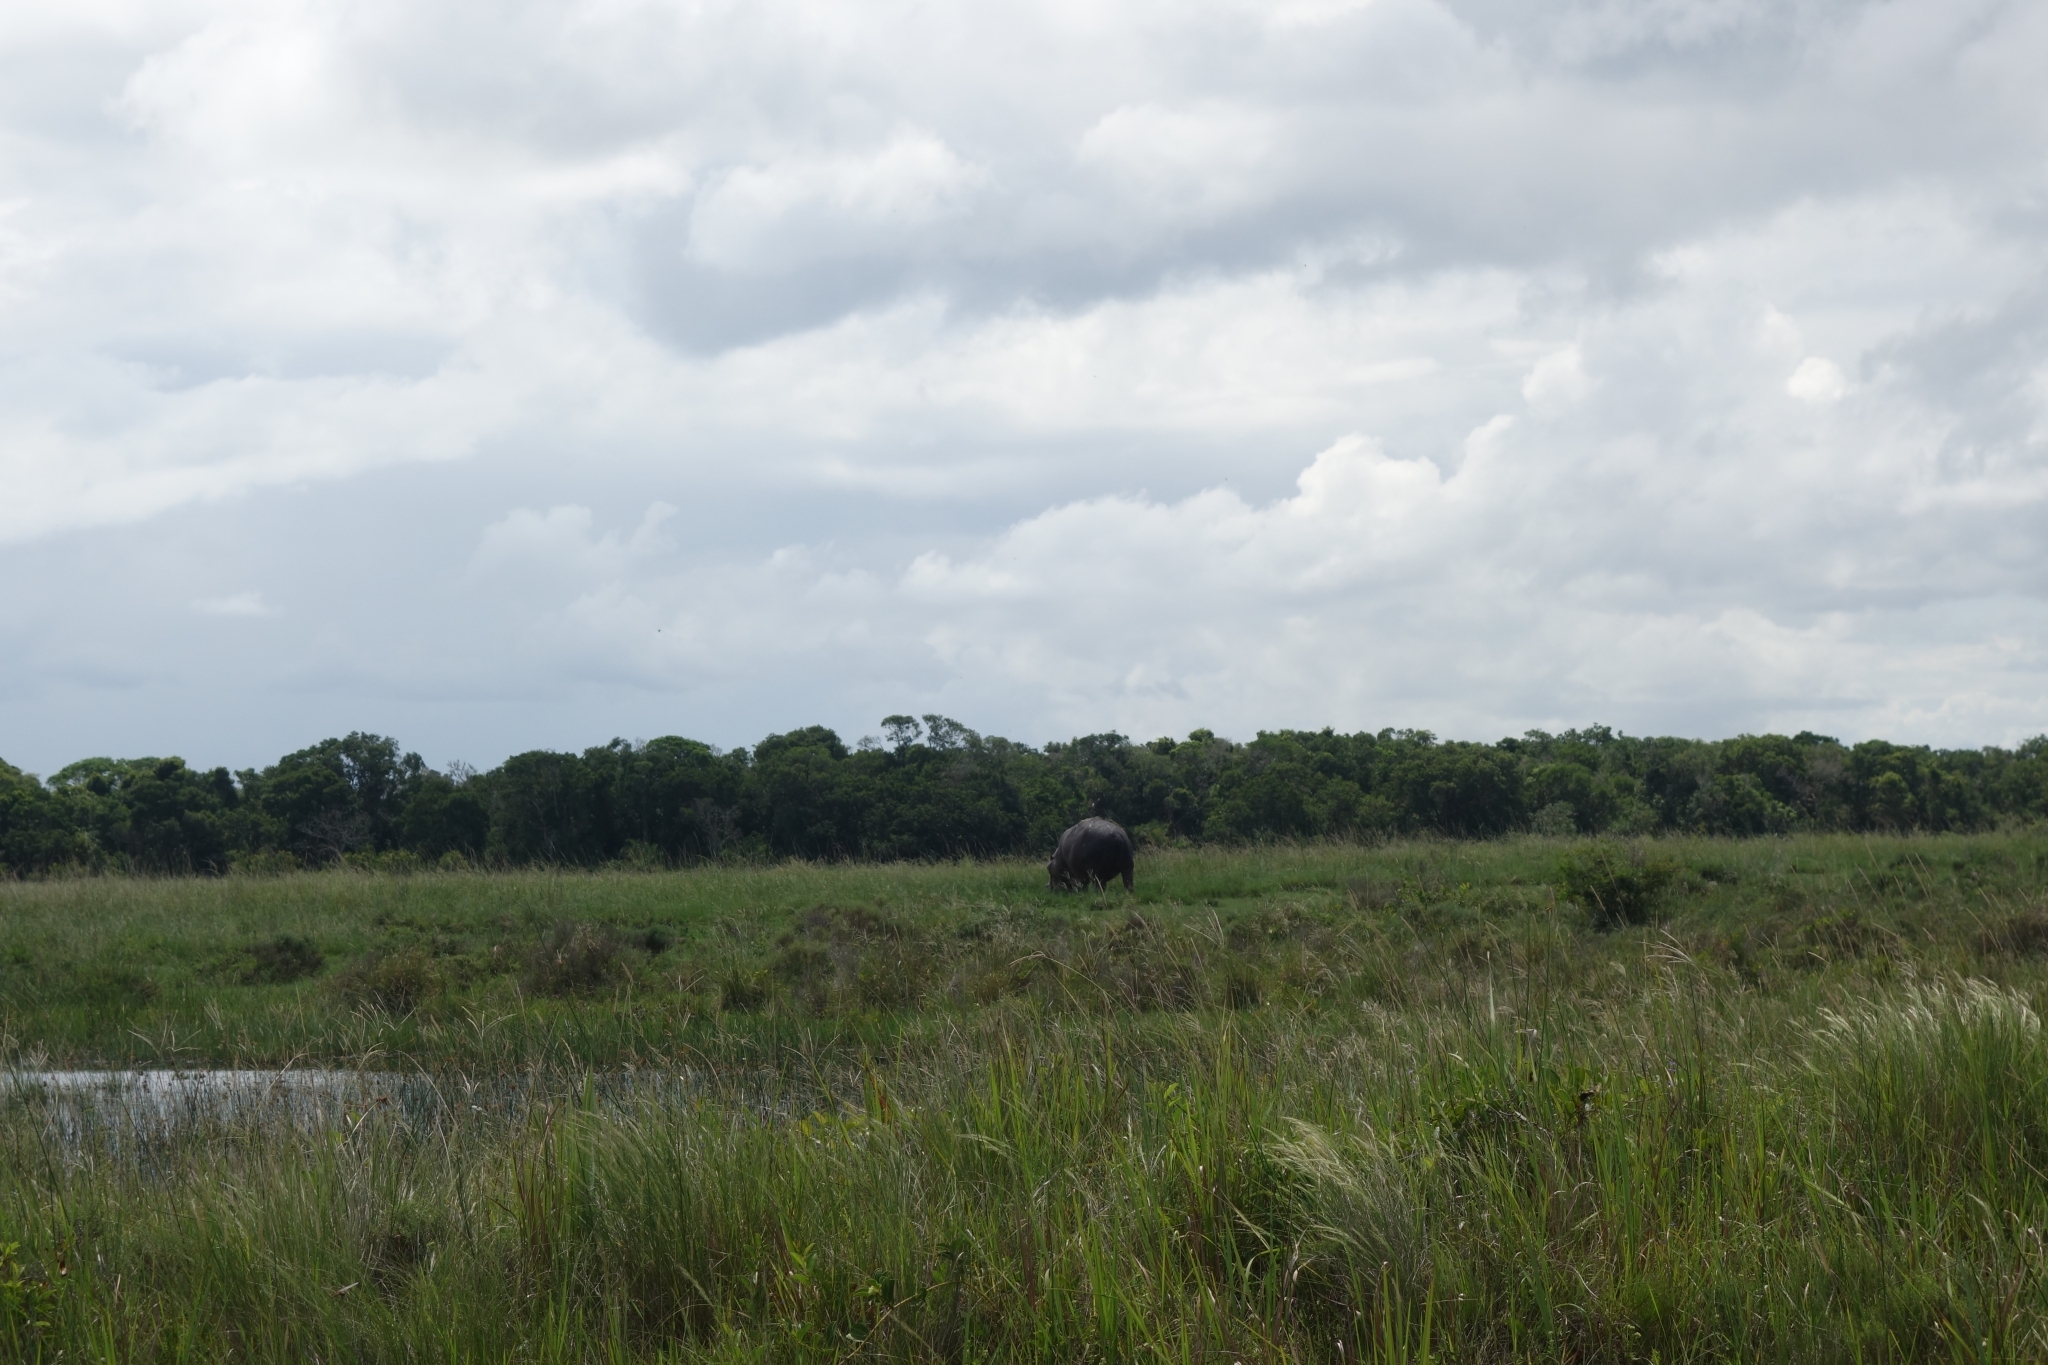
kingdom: Animalia
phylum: Chordata
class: Mammalia
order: Artiodactyla
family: Hippopotamidae
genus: Hippopotamus
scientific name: Hippopotamus amphibius
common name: Common hippopotamus
